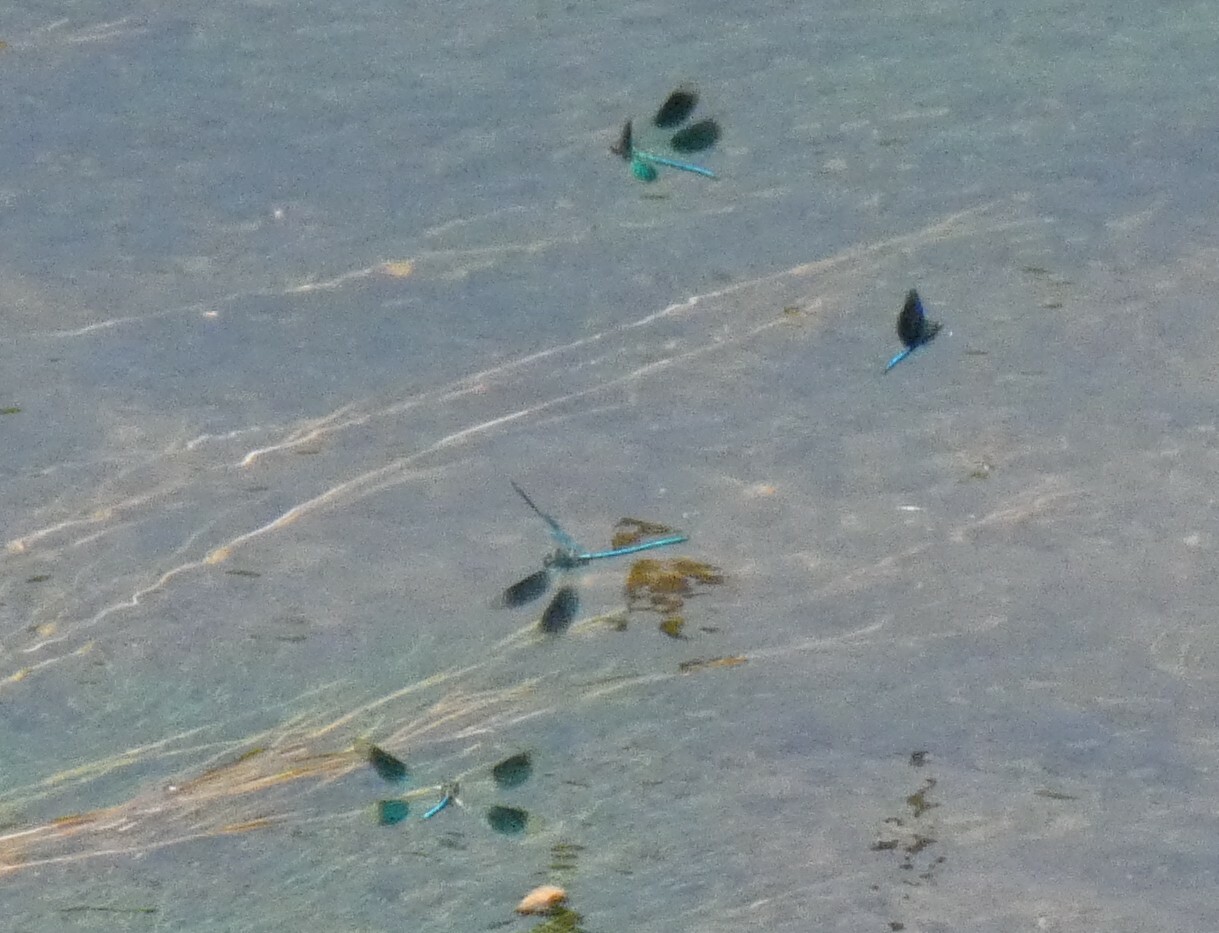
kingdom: Animalia
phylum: Arthropoda
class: Insecta
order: Odonata
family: Calopterygidae
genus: Calopteryx
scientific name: Calopteryx splendens
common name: Banded demoiselle
